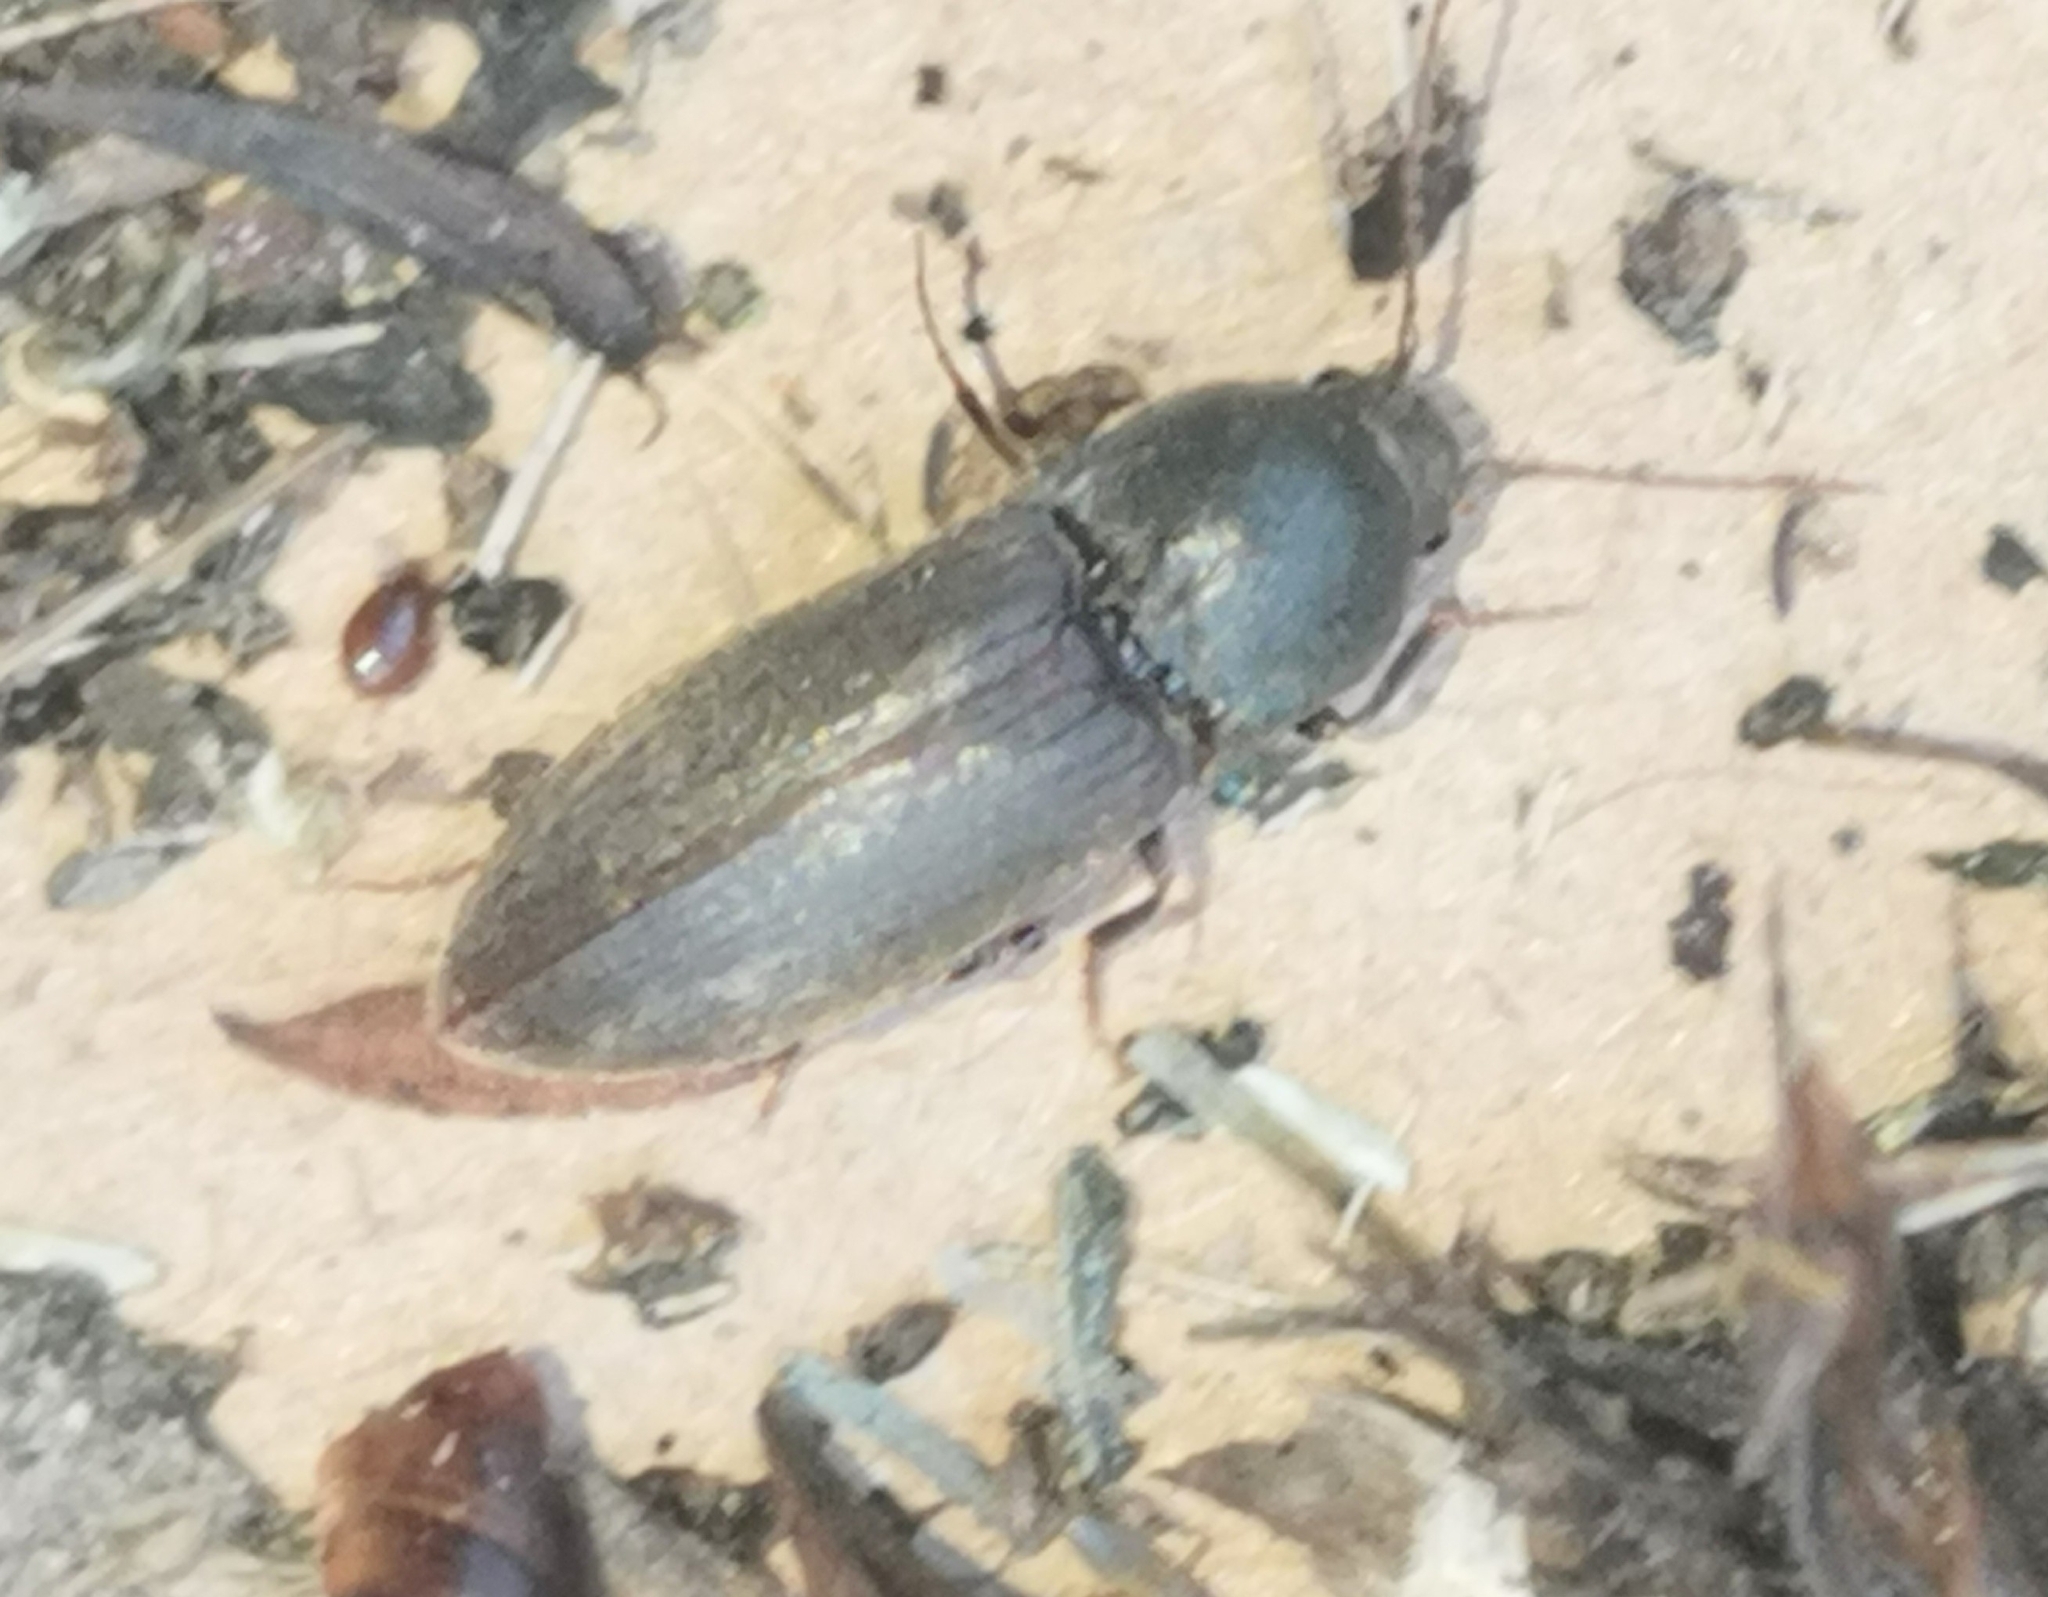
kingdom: Animalia
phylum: Arthropoda
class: Insecta
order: Coleoptera
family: Elateridae
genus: Agriotes
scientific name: Agriotes obscurus
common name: Dusky wireworm
